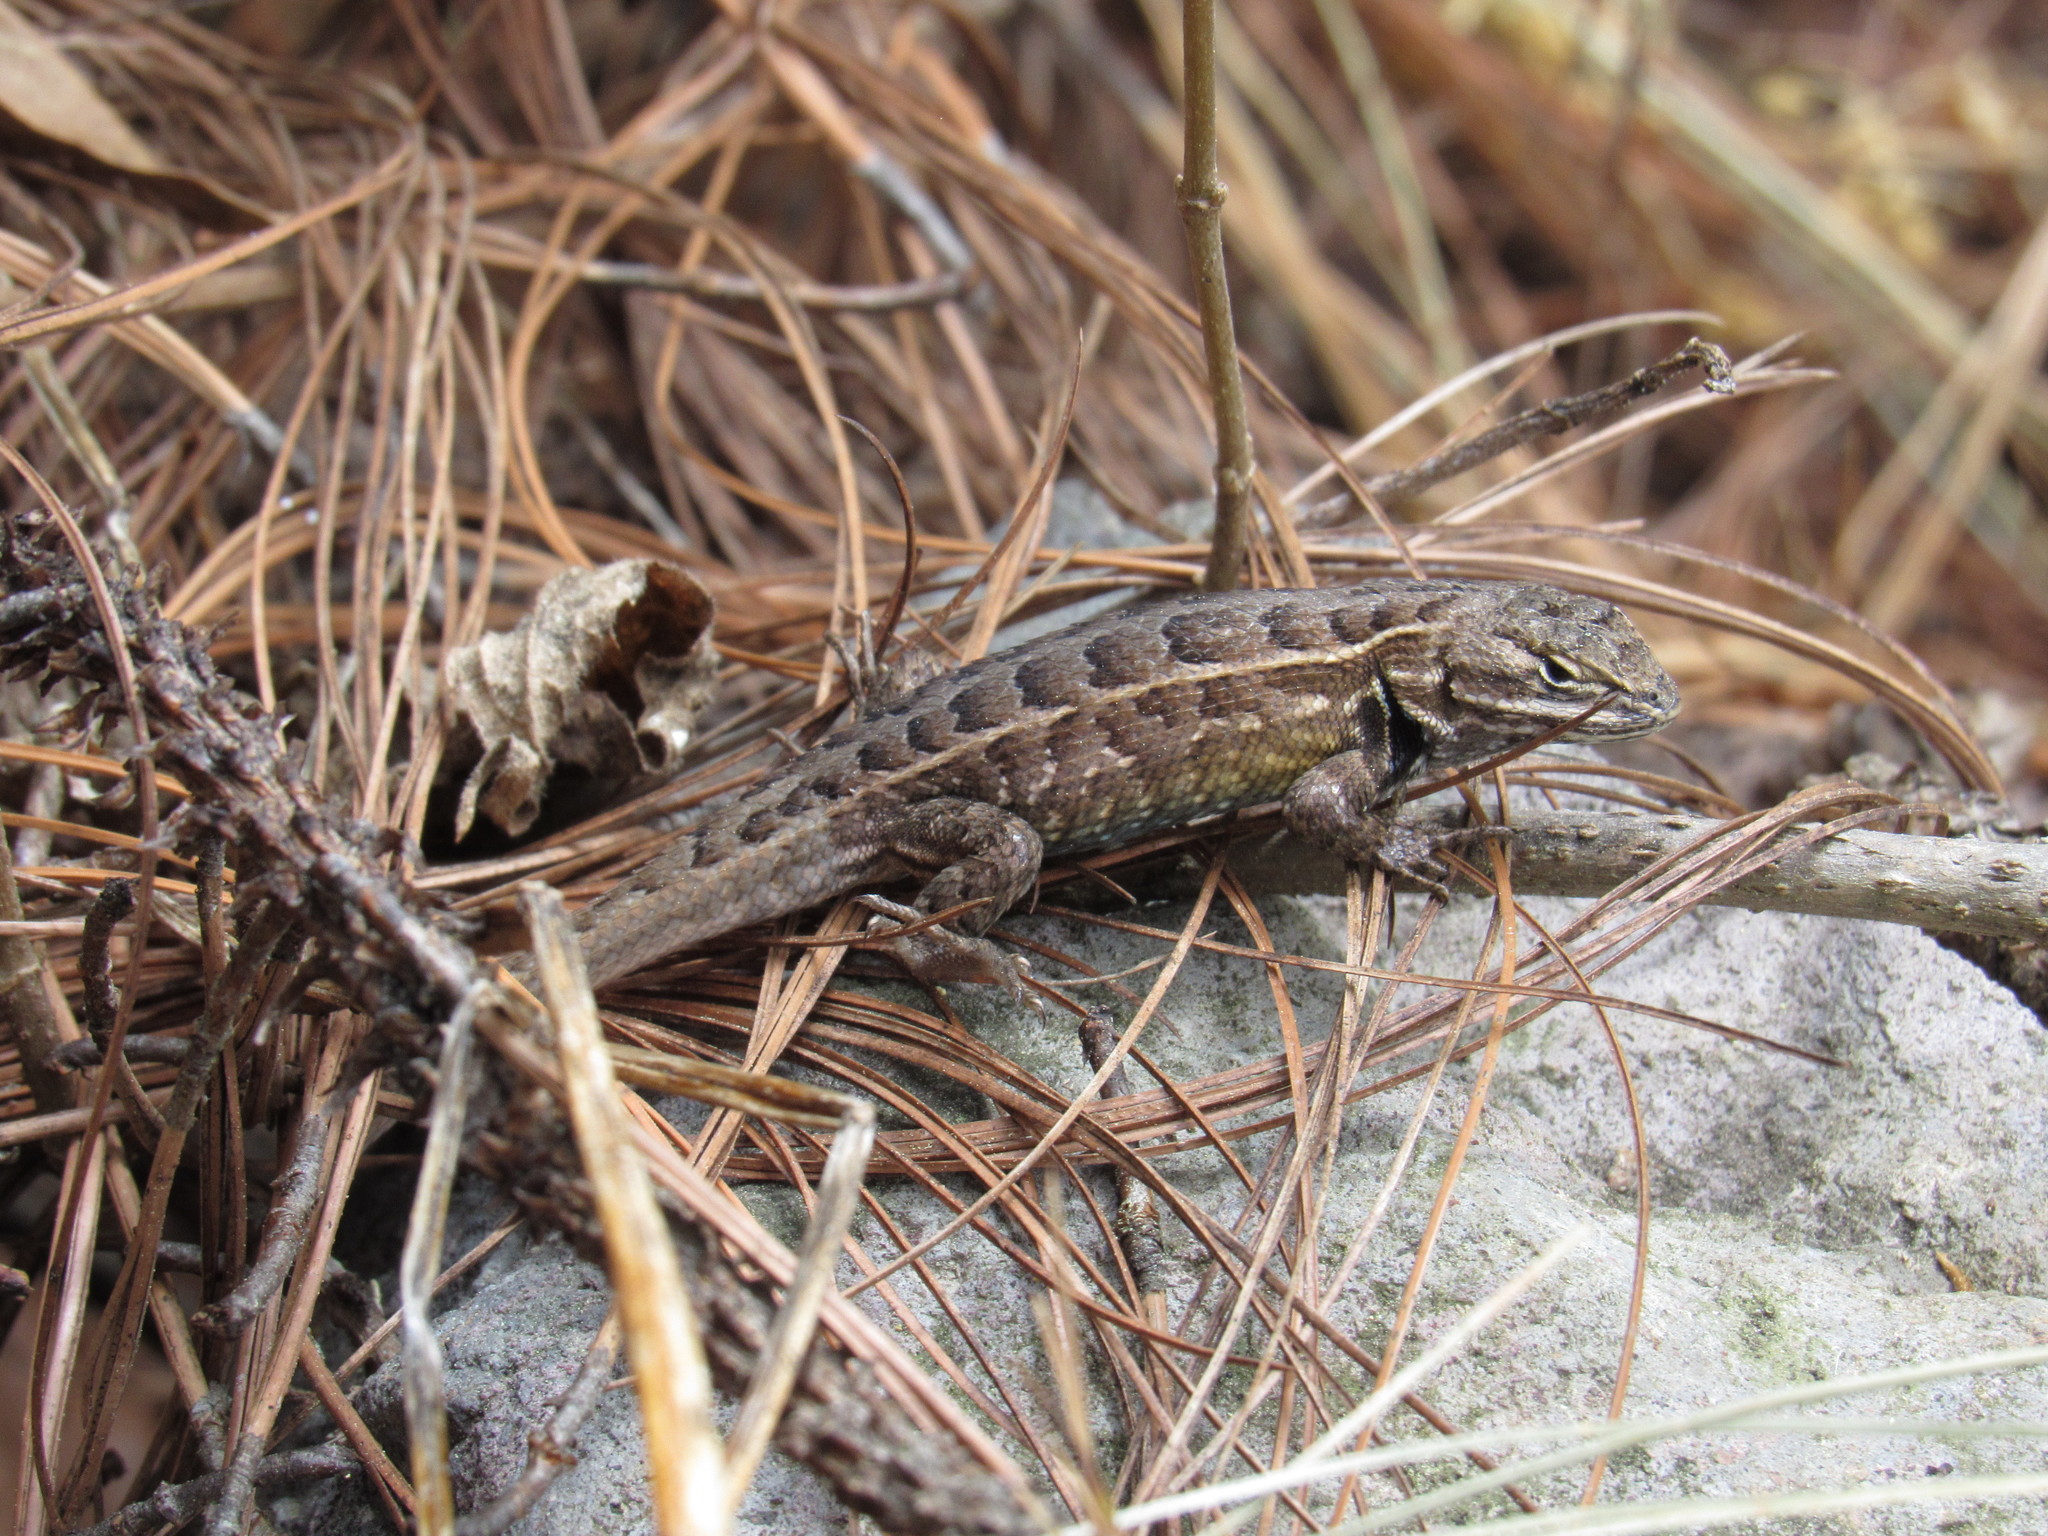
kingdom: Animalia
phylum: Chordata
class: Squamata
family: Phrynosomatidae
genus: Sceloporus
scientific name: Sceloporus subniger
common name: Plateau bunchgrass lizard
